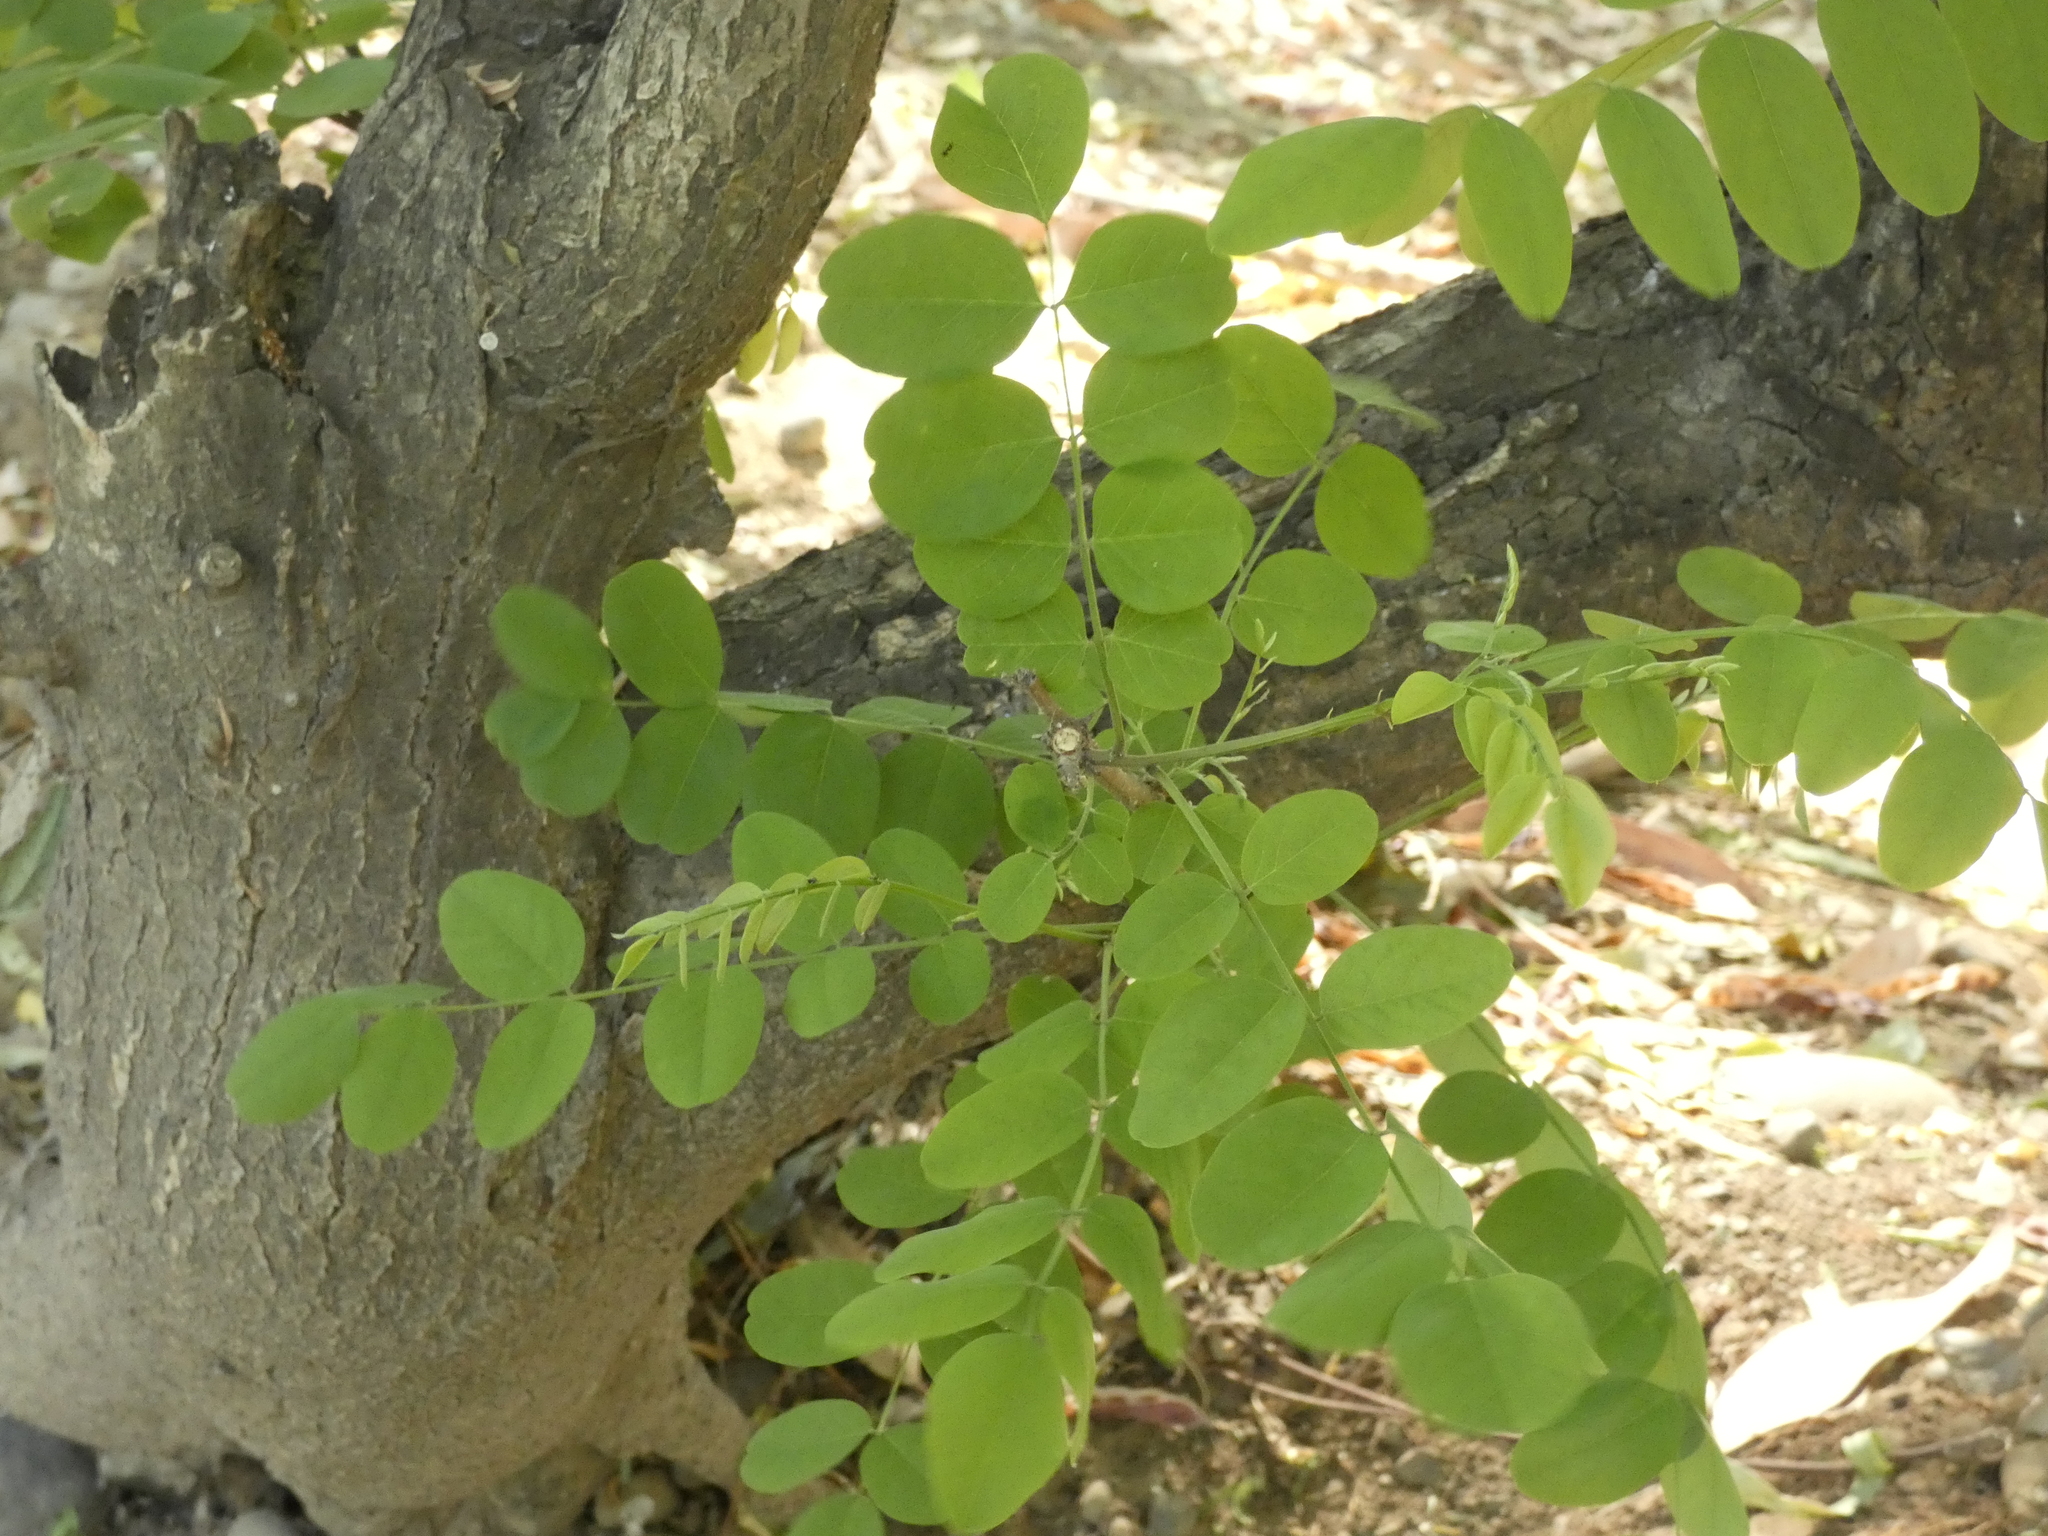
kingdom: Plantae
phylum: Tracheophyta
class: Magnoliopsida
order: Fabales
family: Fabaceae
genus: Robinia
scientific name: Robinia pseudoacacia
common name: Black locust
